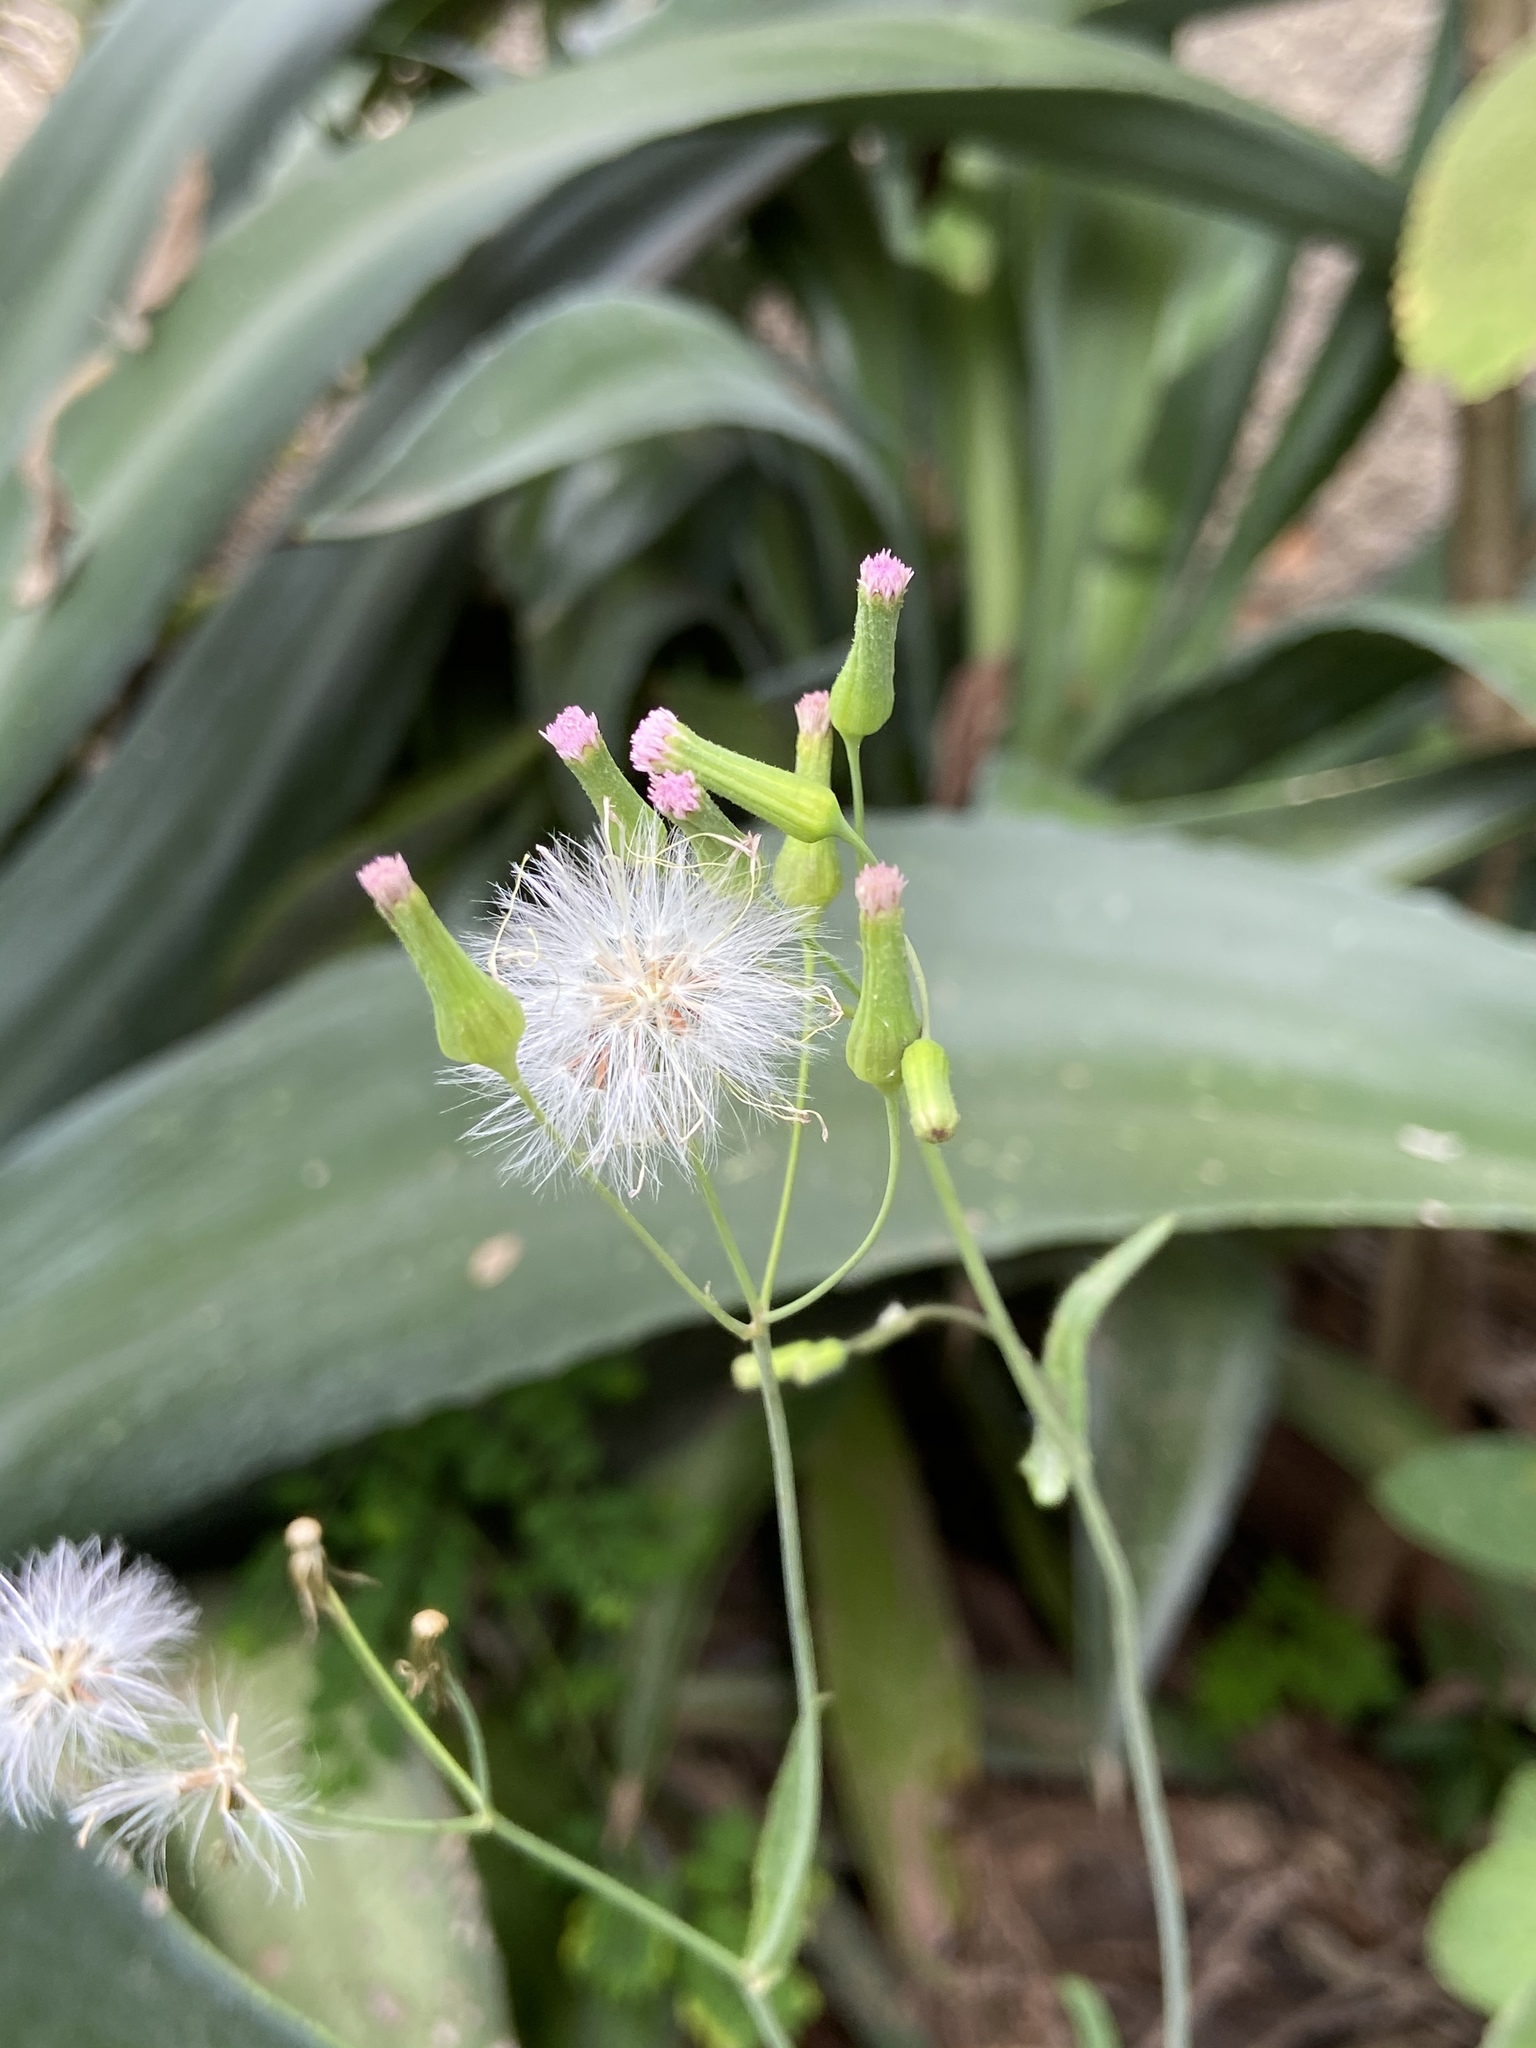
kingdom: Plantae
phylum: Tracheophyta
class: Magnoliopsida
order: Asterales
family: Asteraceae
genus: Emilia
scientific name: Emilia sonchifolia
